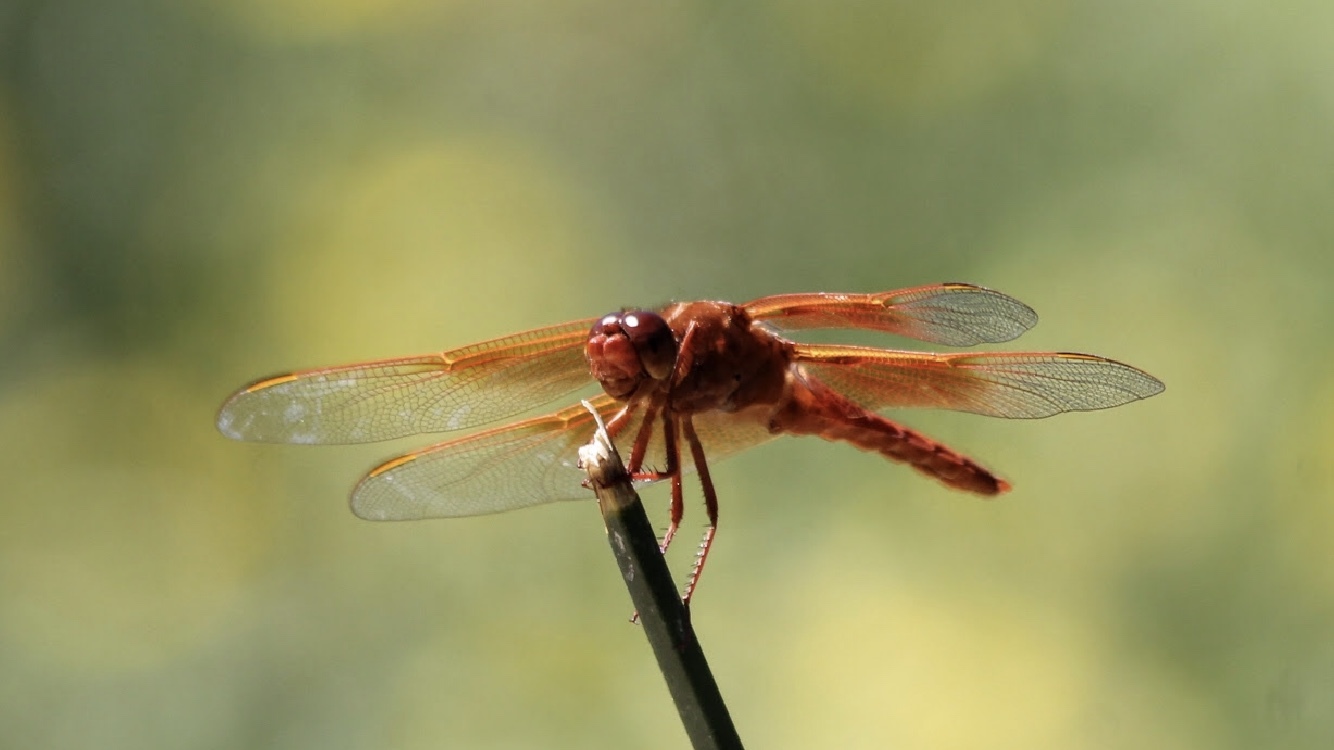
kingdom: Animalia
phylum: Arthropoda
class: Insecta
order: Odonata
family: Libellulidae
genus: Libellula
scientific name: Libellula saturata
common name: Flame skimmer
